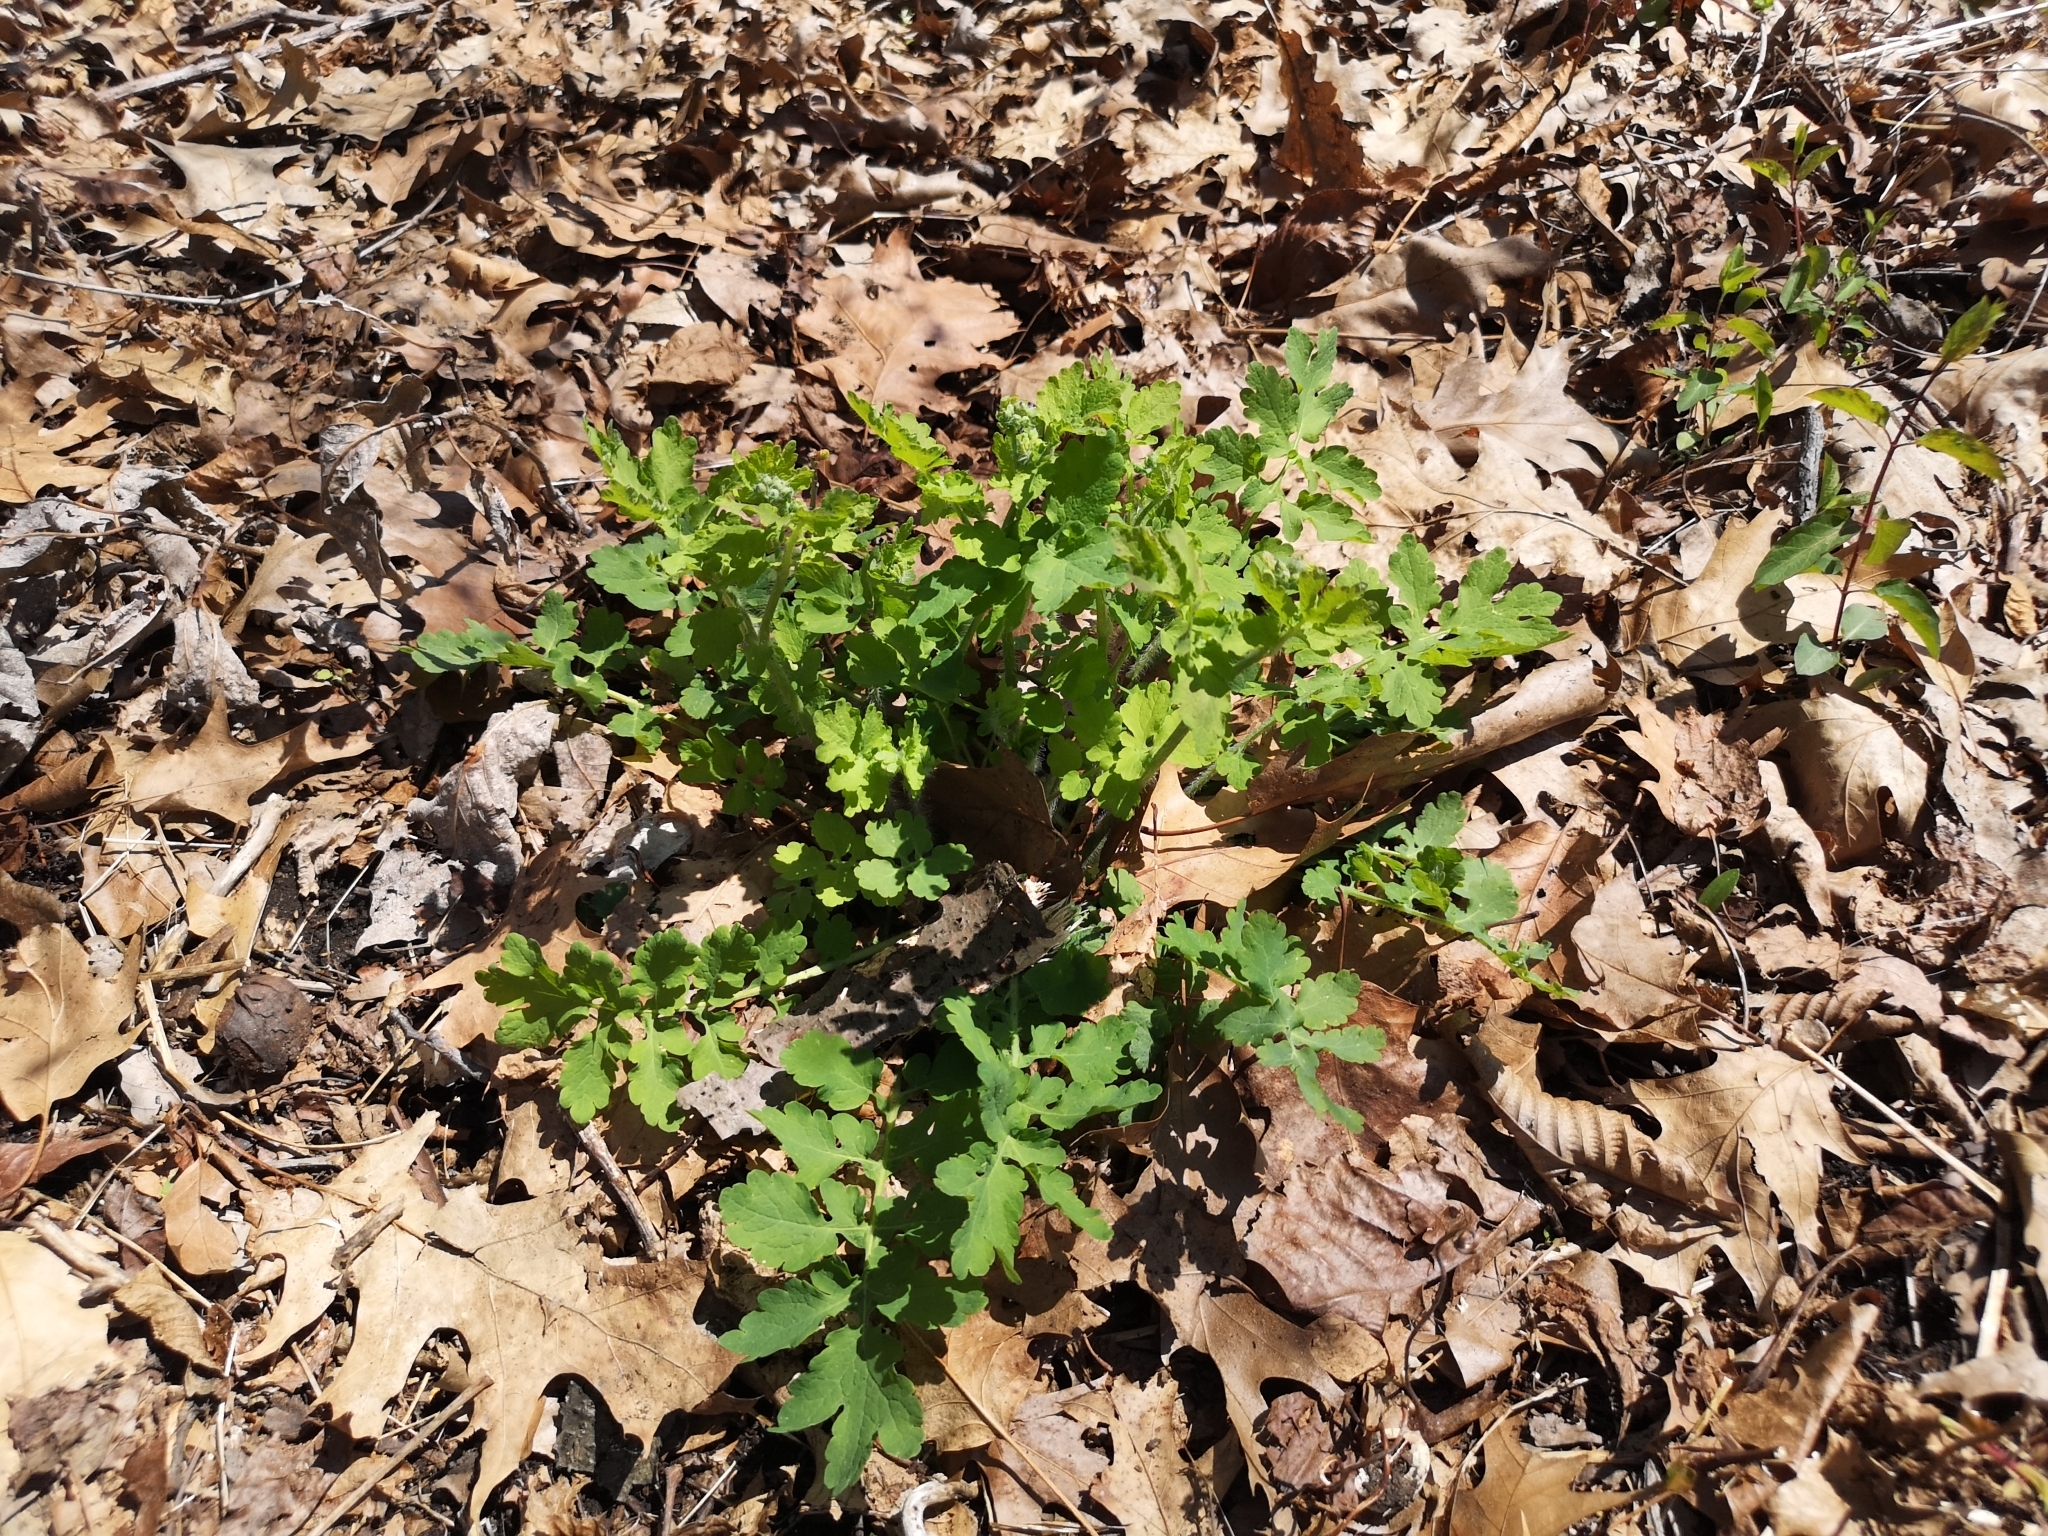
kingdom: Plantae
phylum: Tracheophyta
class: Magnoliopsida
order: Ranunculales
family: Papaveraceae
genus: Chelidonium
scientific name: Chelidonium majus
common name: Greater celandine
